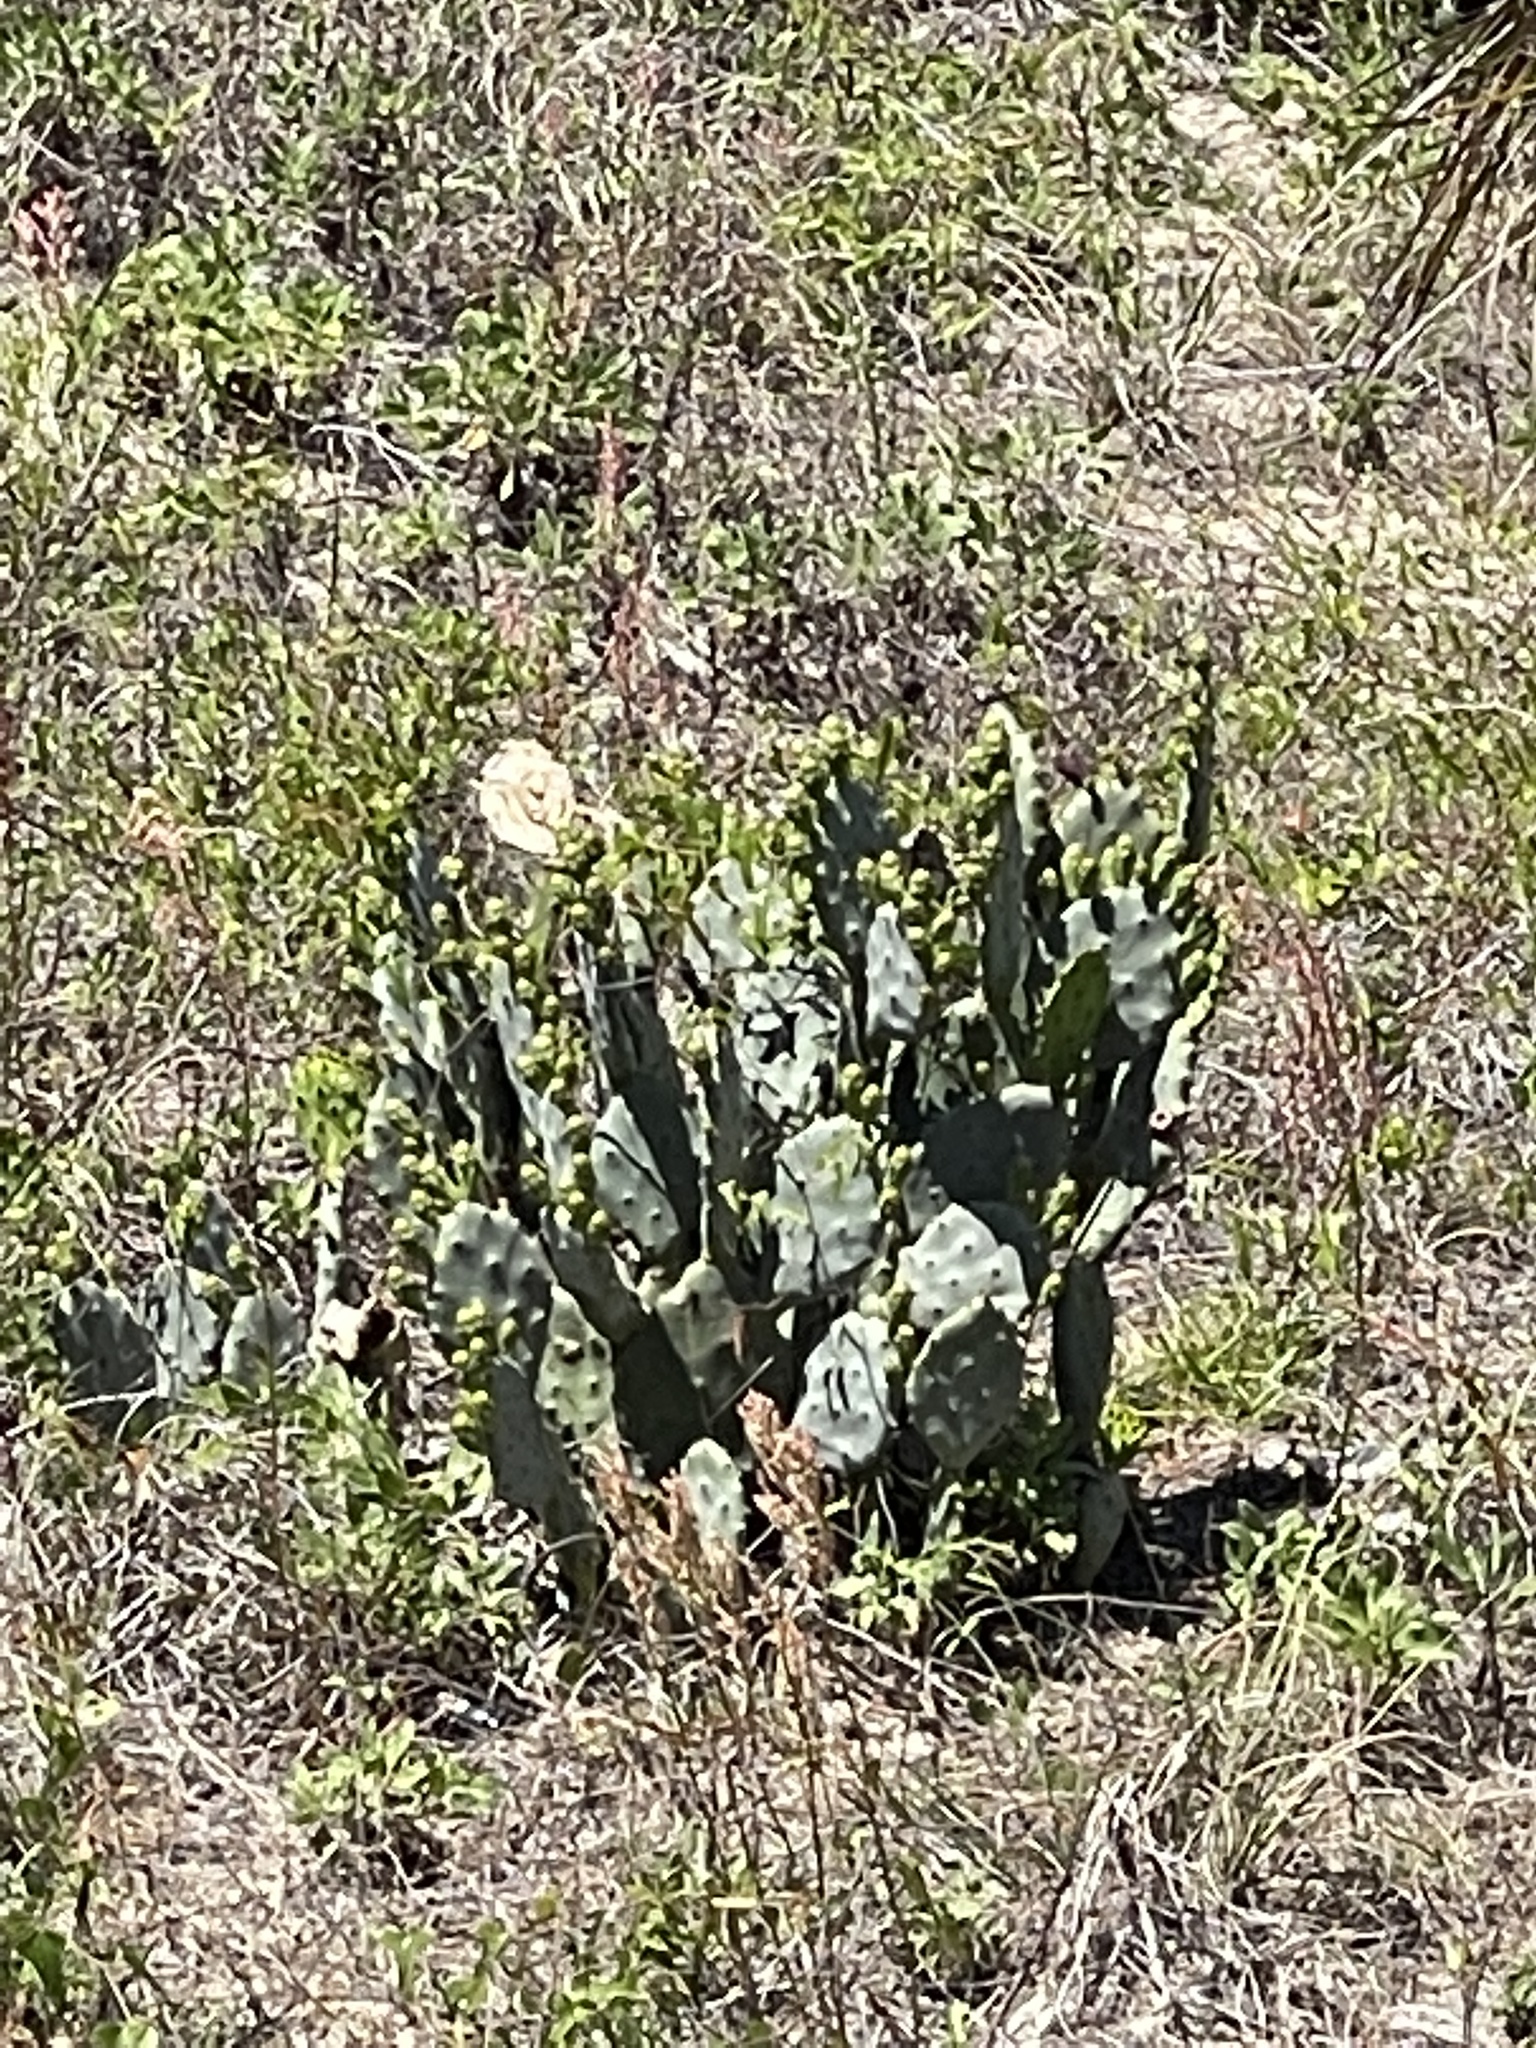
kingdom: Plantae
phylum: Tracheophyta
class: Magnoliopsida
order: Caryophyllales
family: Cactaceae
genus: Opuntia
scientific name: Opuntia mesacantha
